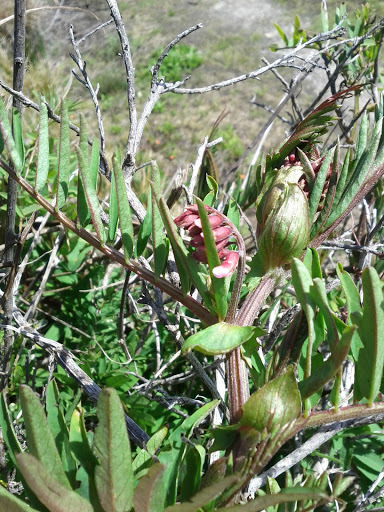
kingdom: Plantae
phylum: Tracheophyta
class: Magnoliopsida
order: Fabales
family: Fabaceae
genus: Vicia
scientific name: Vicia
